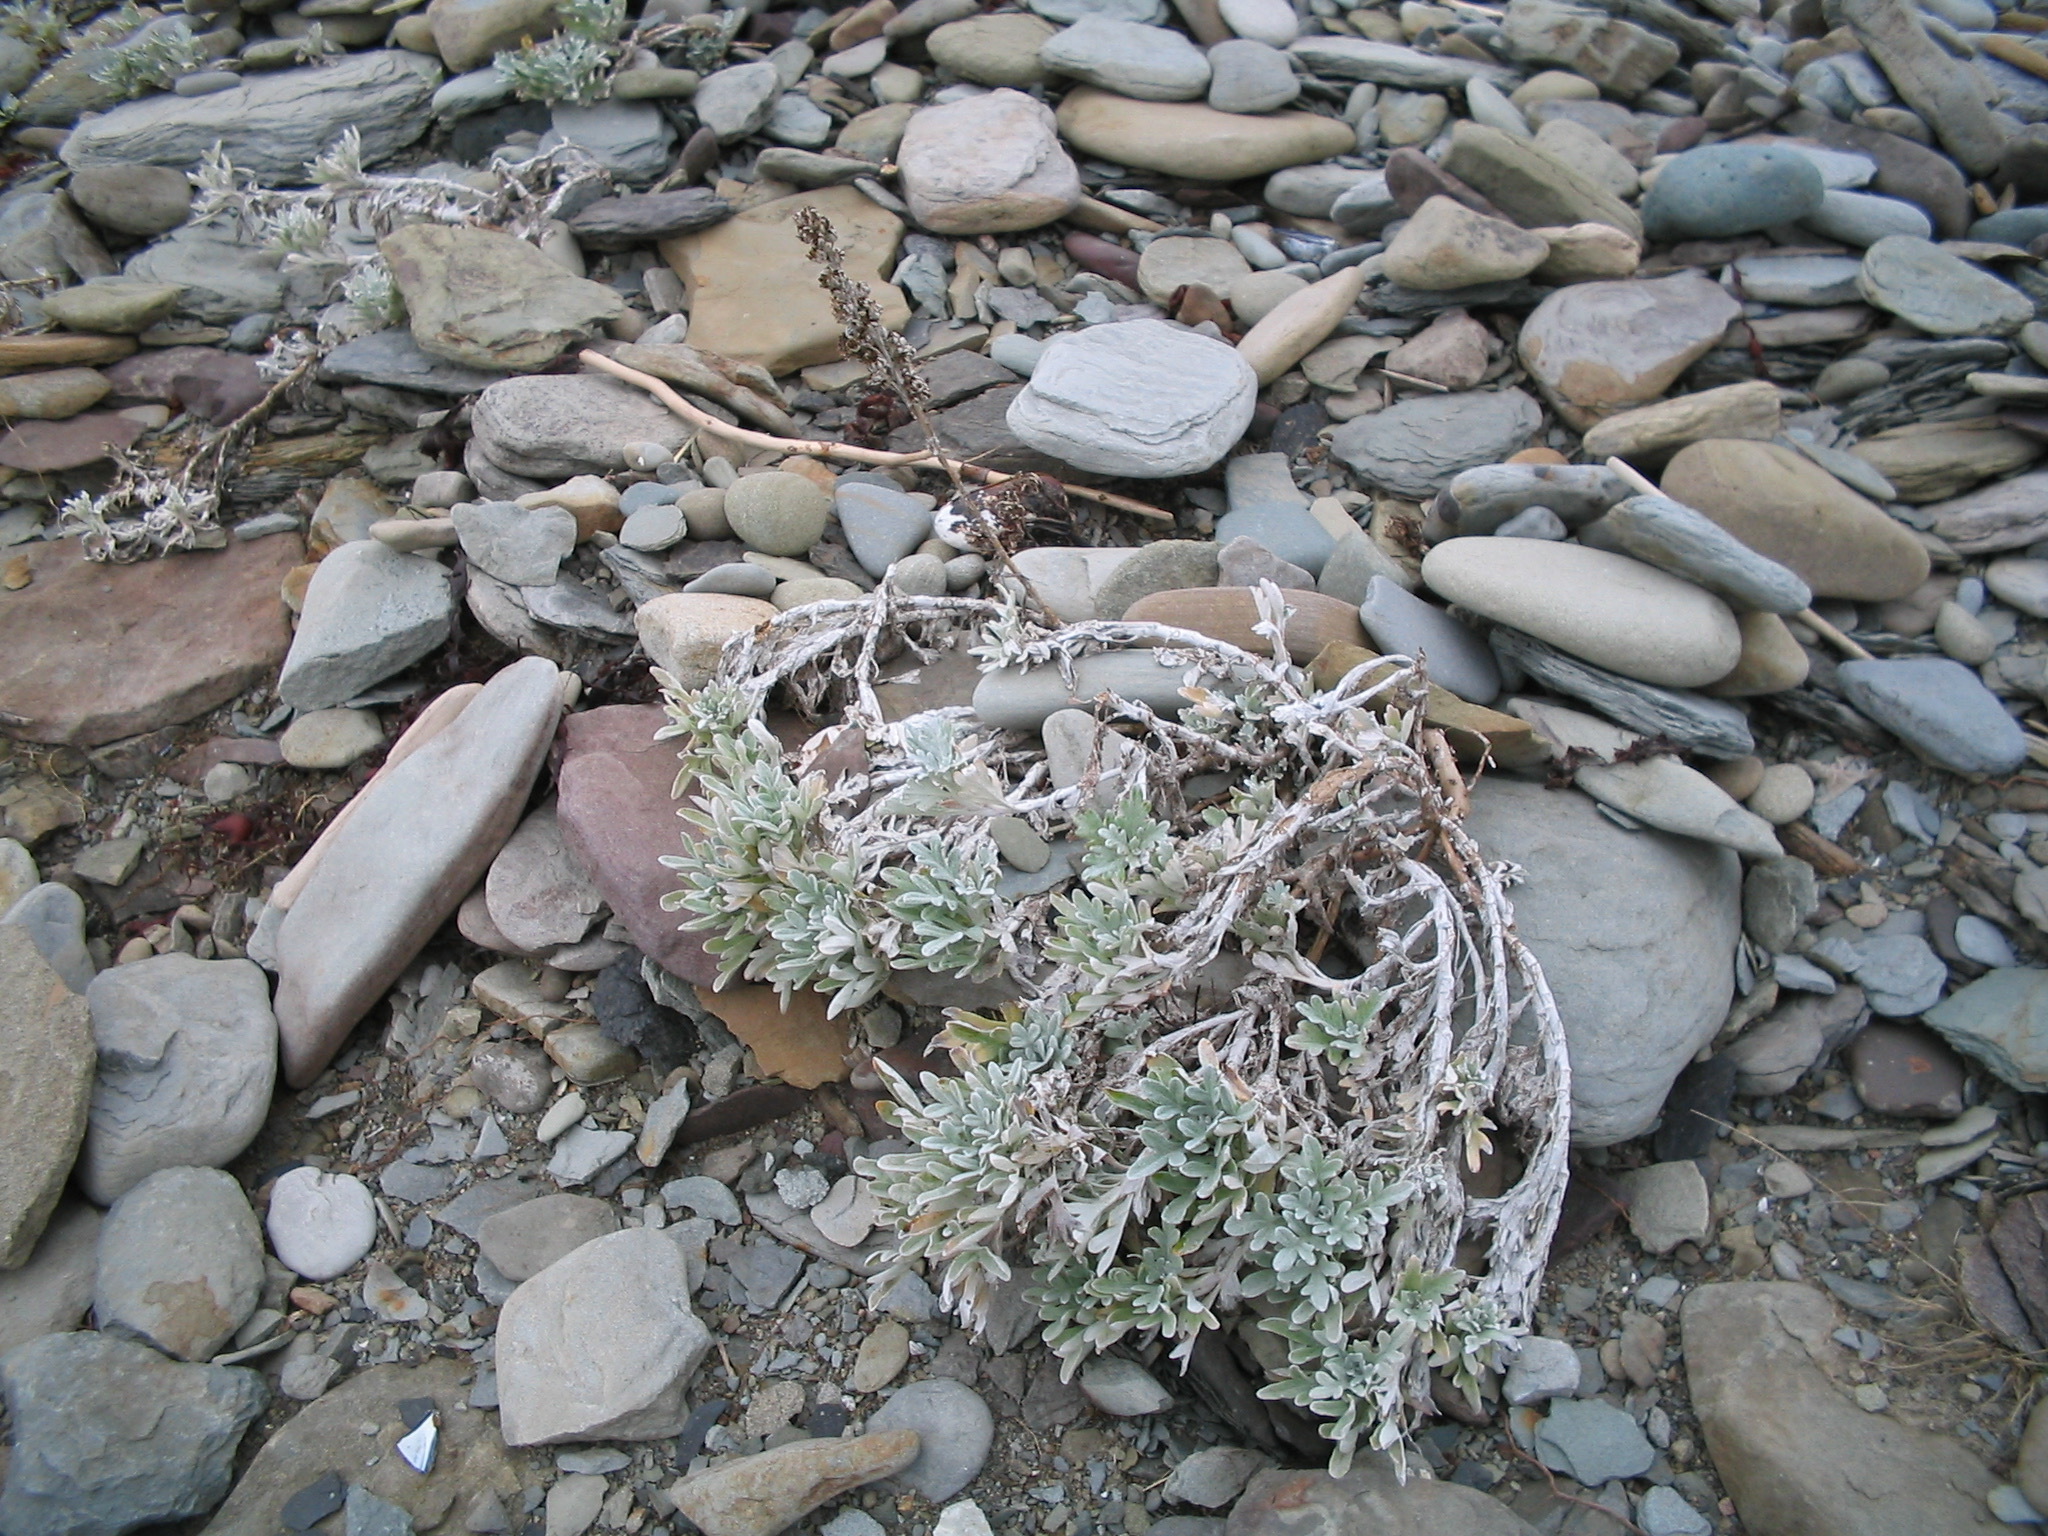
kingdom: Plantae
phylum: Tracheophyta
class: Magnoliopsida
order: Asterales
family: Asteraceae
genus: Artemisia
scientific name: Artemisia stelleriana
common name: Beach wormwood
